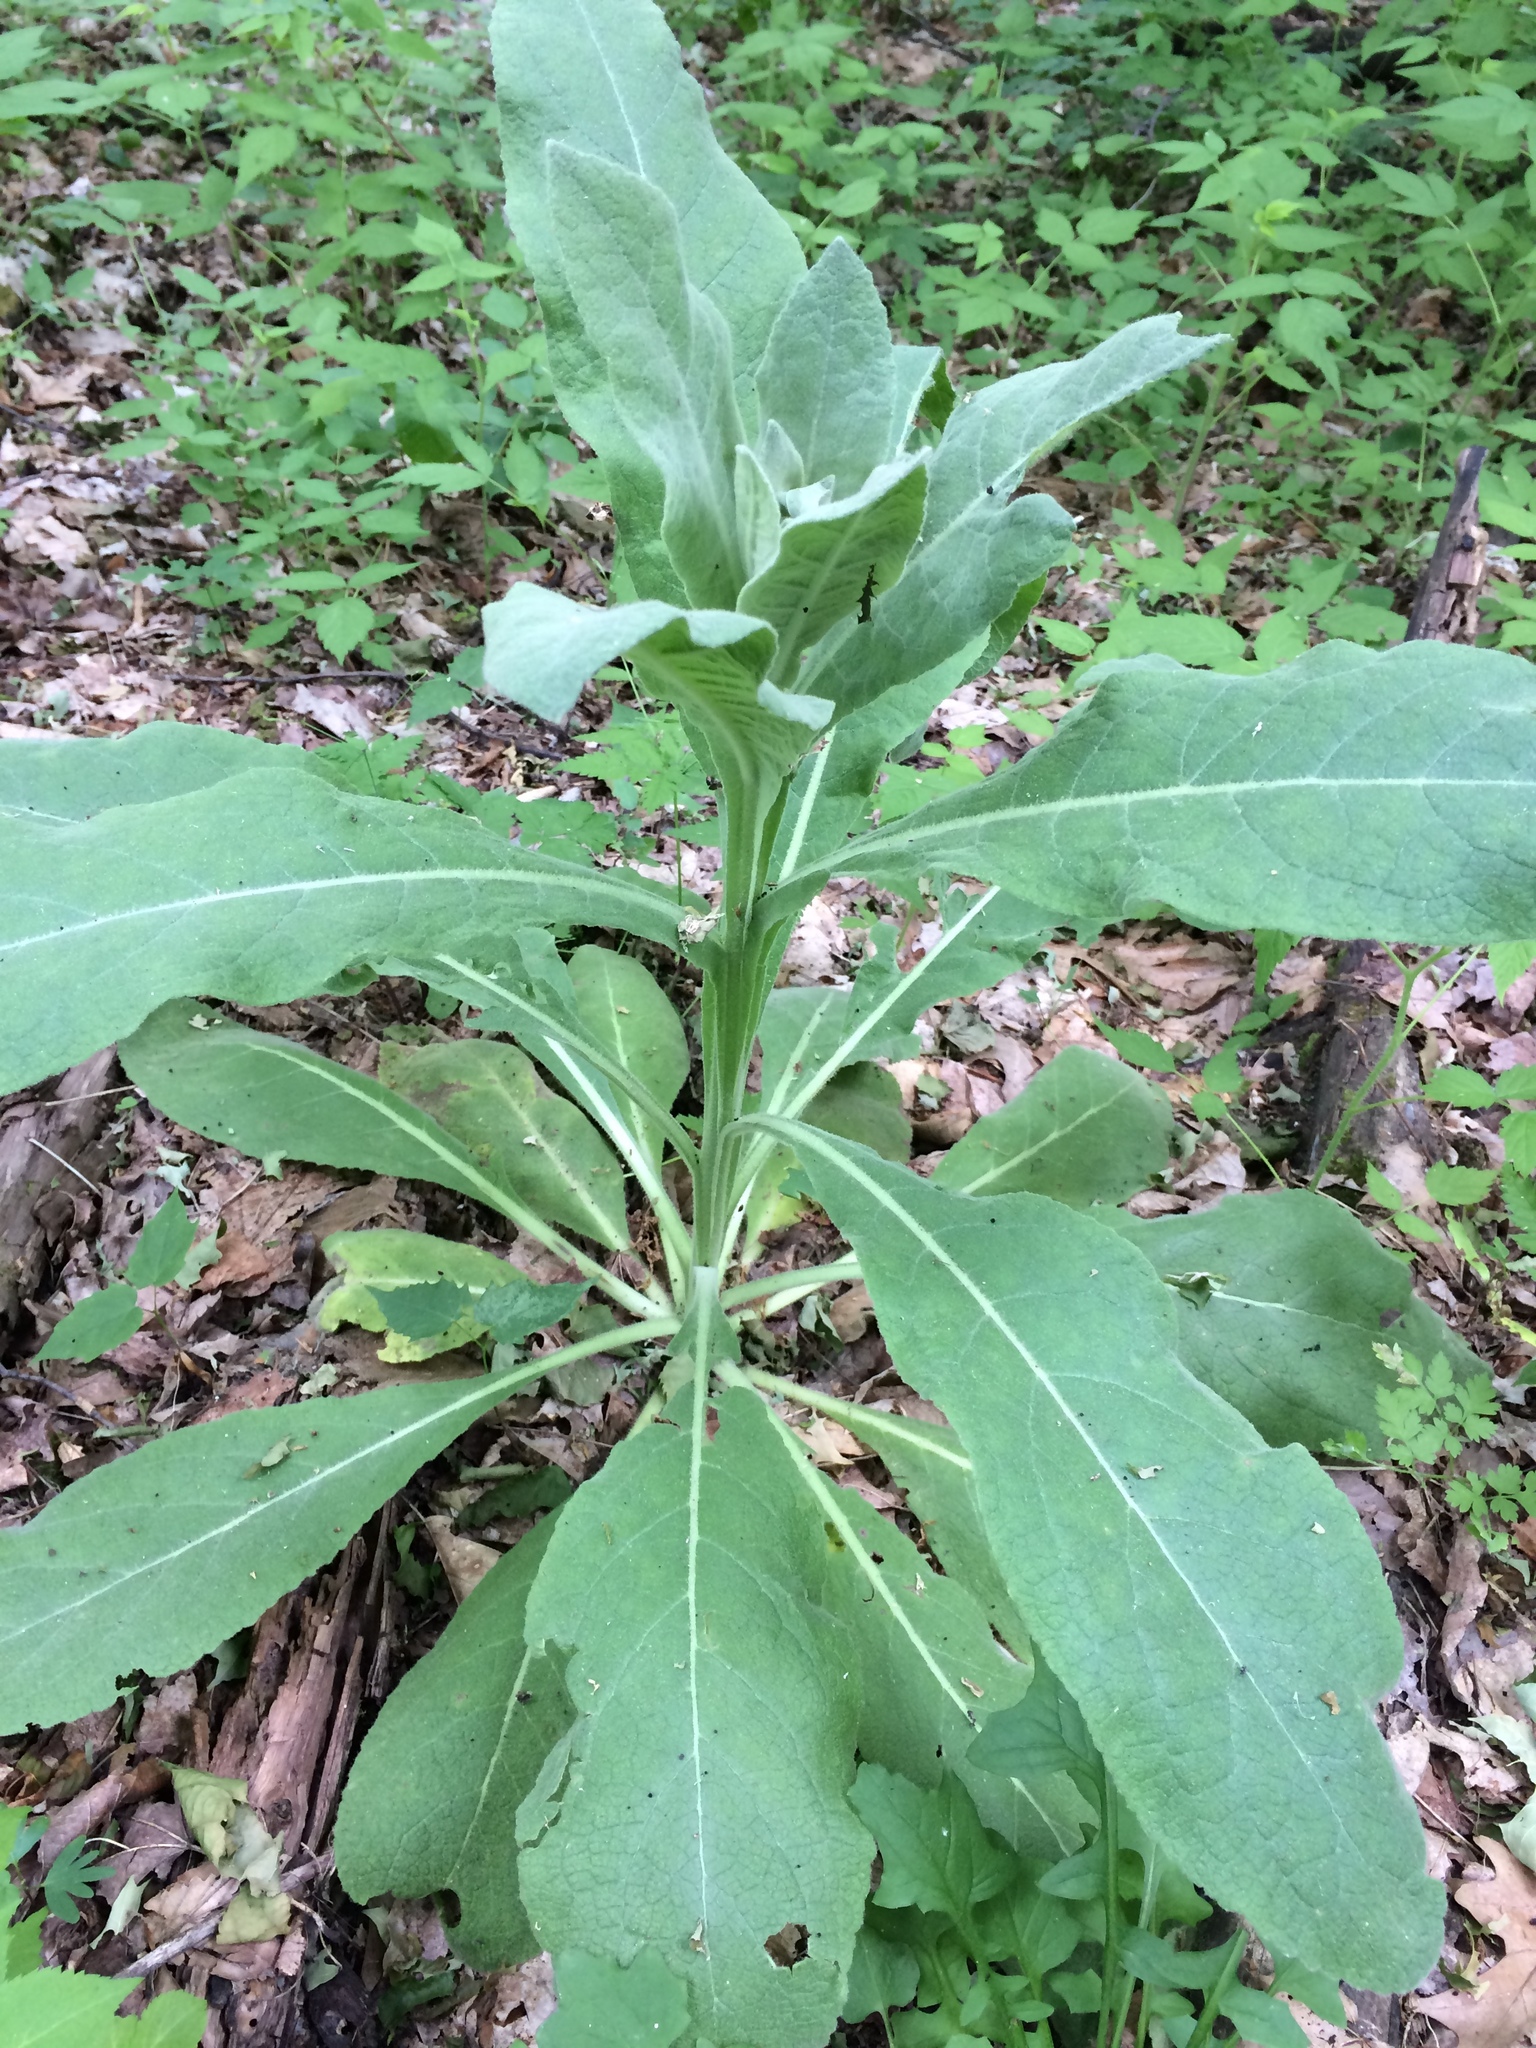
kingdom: Plantae
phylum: Tracheophyta
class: Magnoliopsida
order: Lamiales
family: Scrophulariaceae
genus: Verbascum
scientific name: Verbascum thapsus
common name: Common mullein
